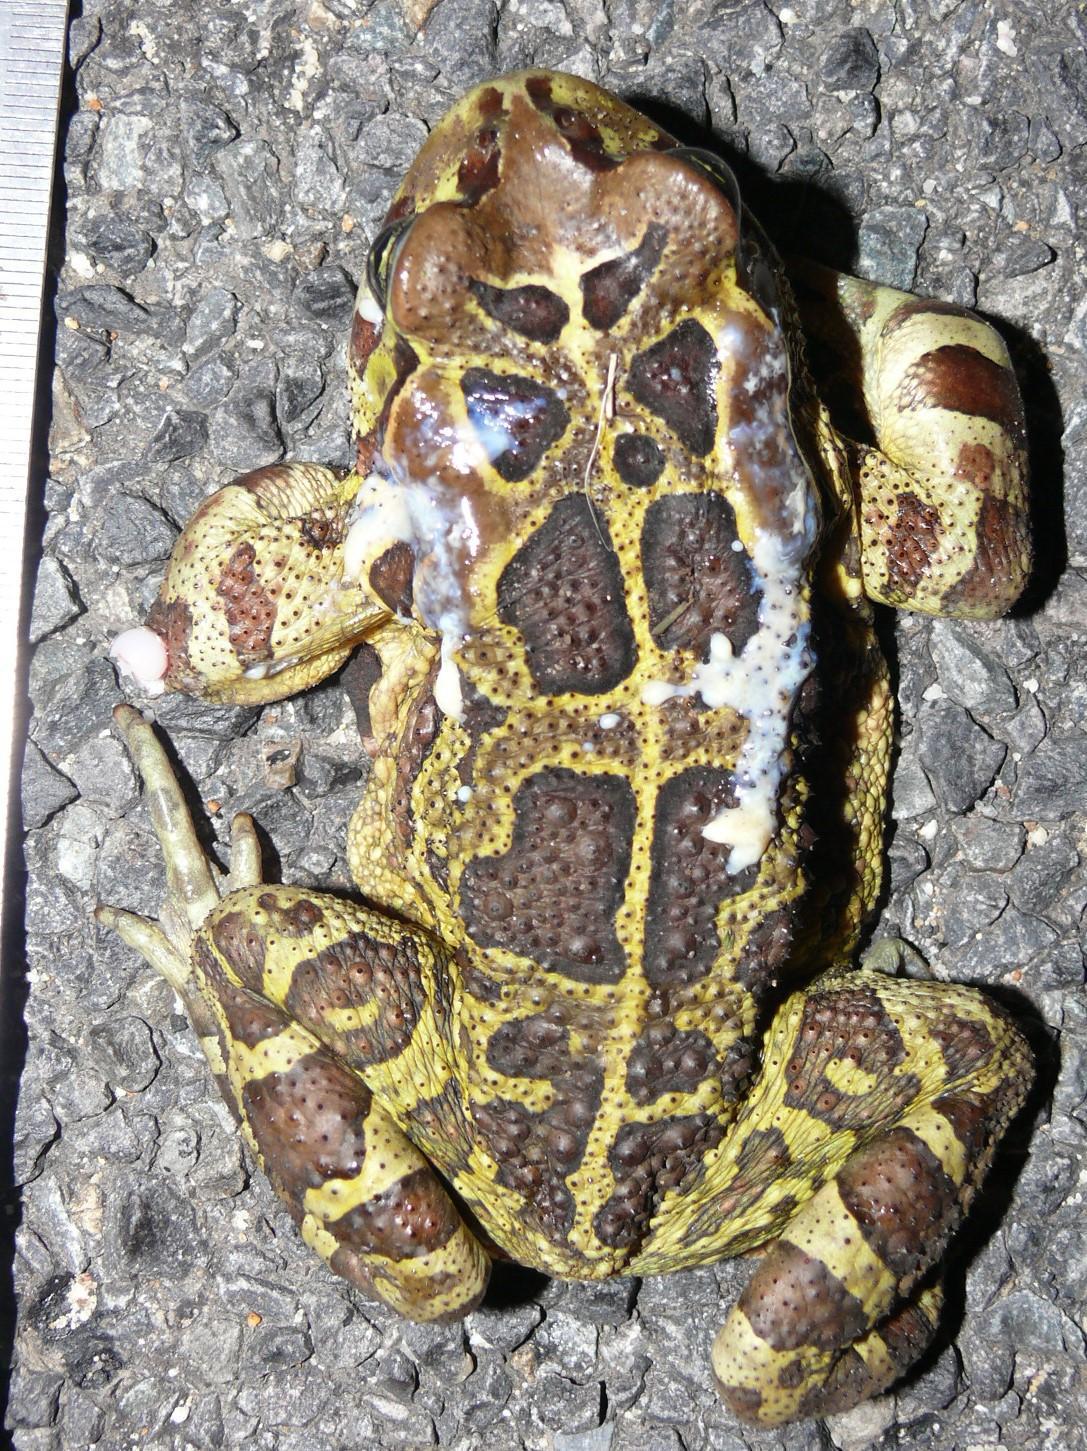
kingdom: Animalia
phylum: Chordata
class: Amphibia
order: Anura
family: Bufonidae
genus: Sclerophrys
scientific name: Sclerophrys pantherina
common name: Panther toad
